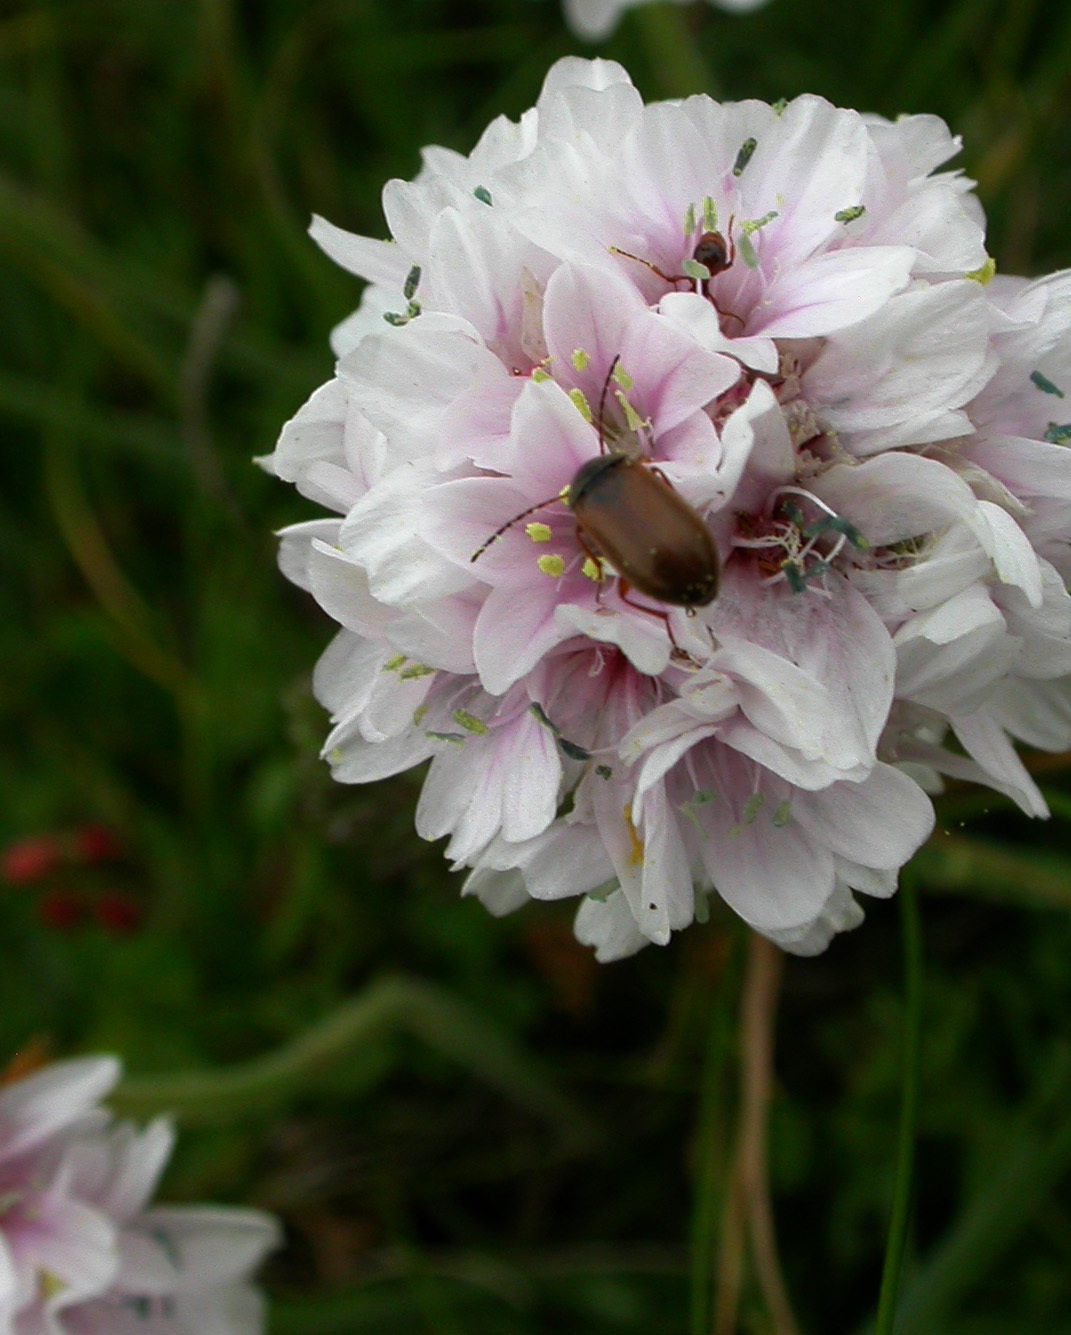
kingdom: Animalia
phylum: Arthropoda
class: Insecta
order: Coleoptera
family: Tenebrionidae
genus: Isomira
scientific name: Isomira murina
